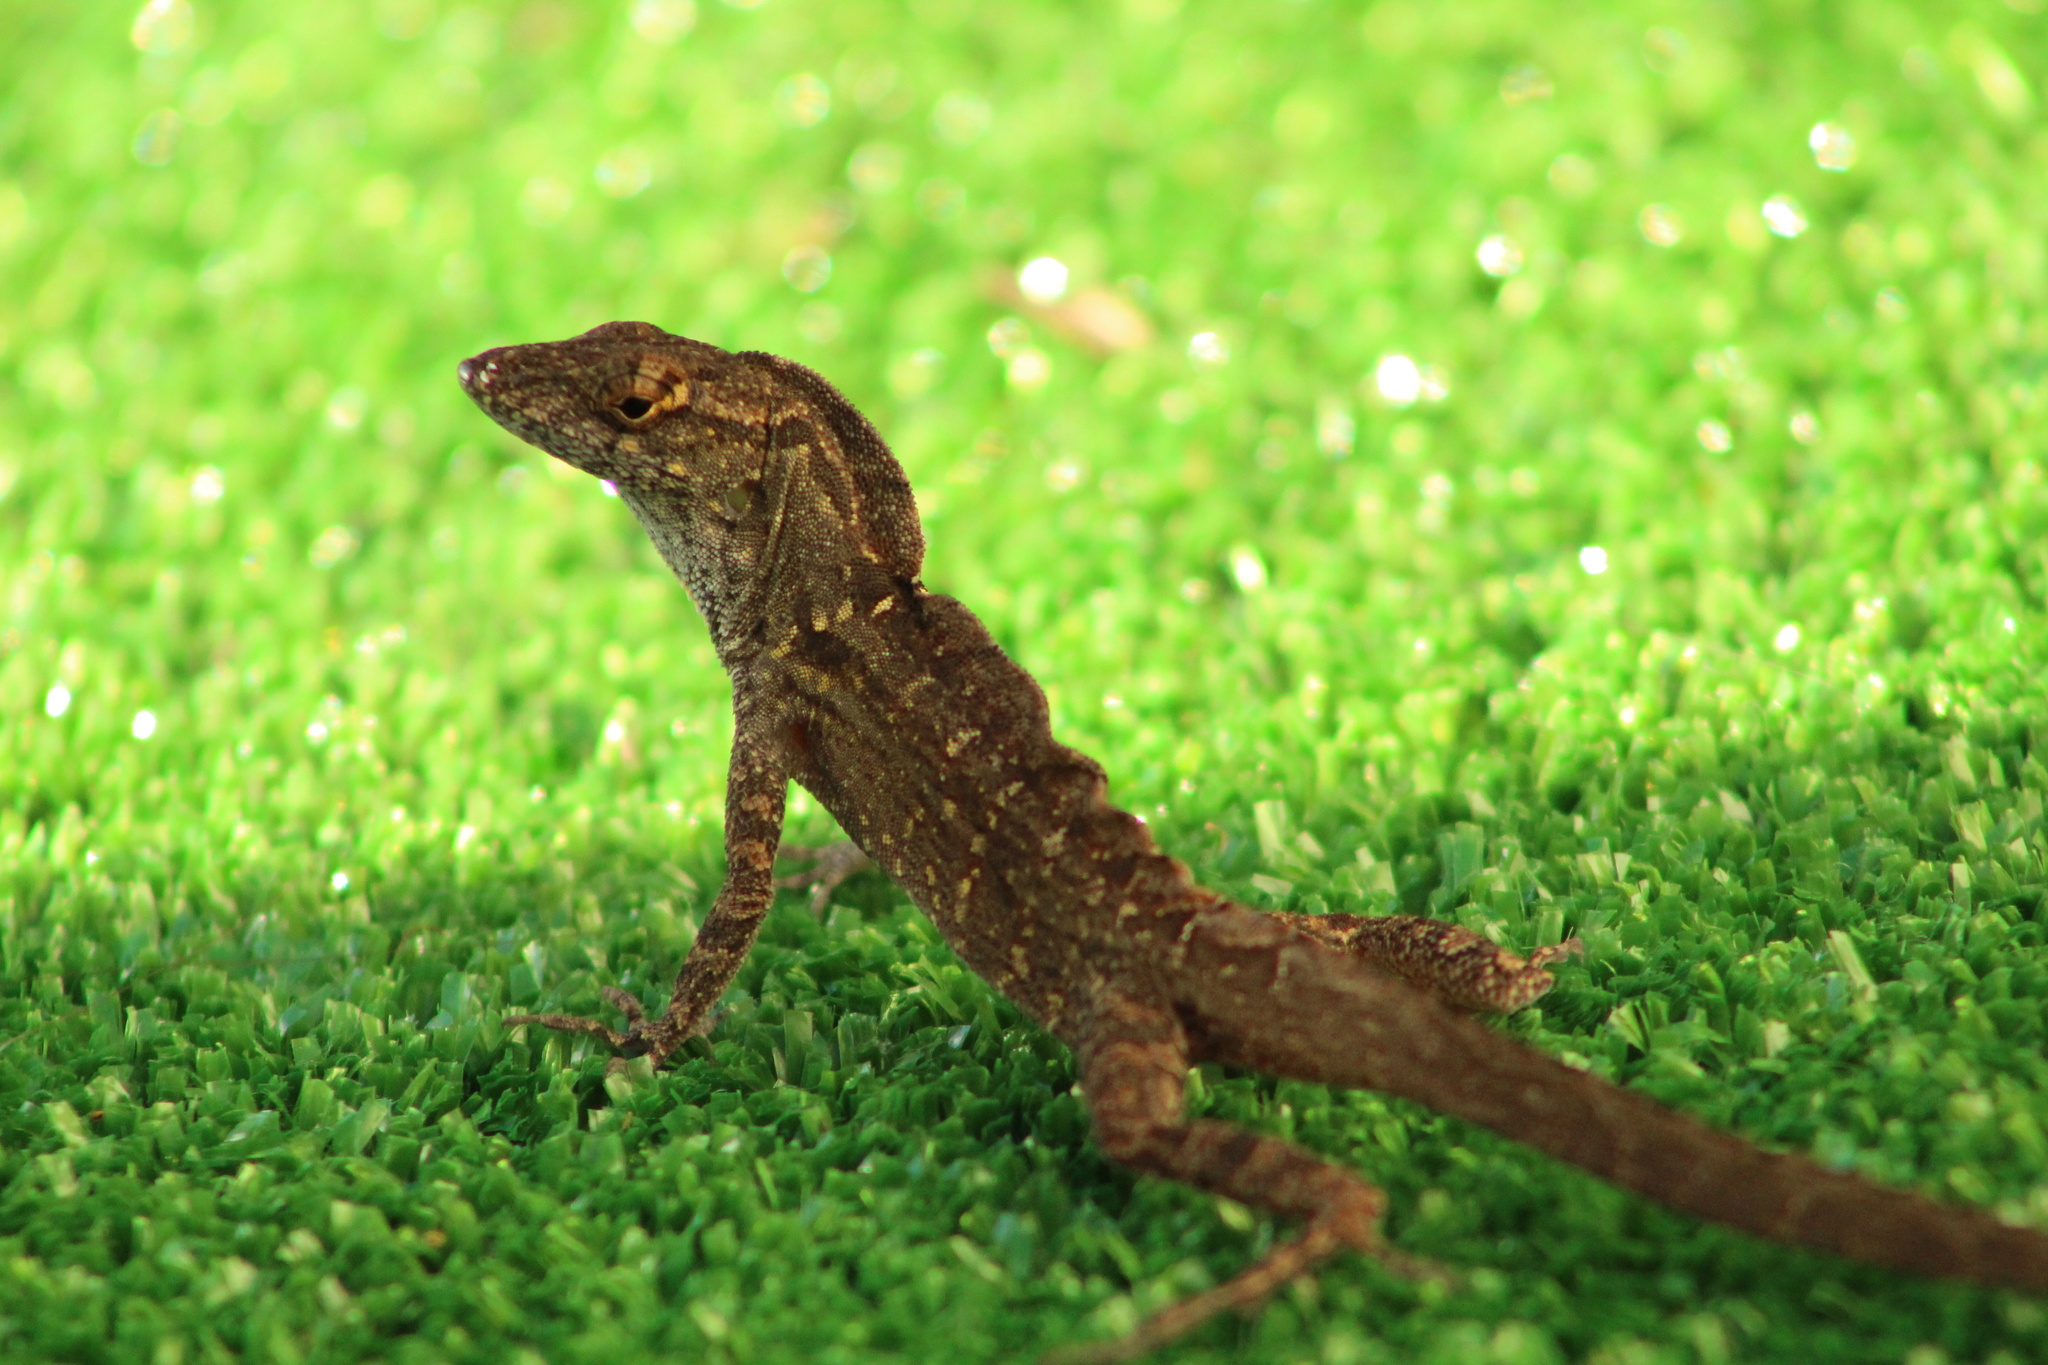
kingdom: Animalia
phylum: Chordata
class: Squamata
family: Dactyloidae
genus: Anolis
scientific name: Anolis sagrei
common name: Brown anole
